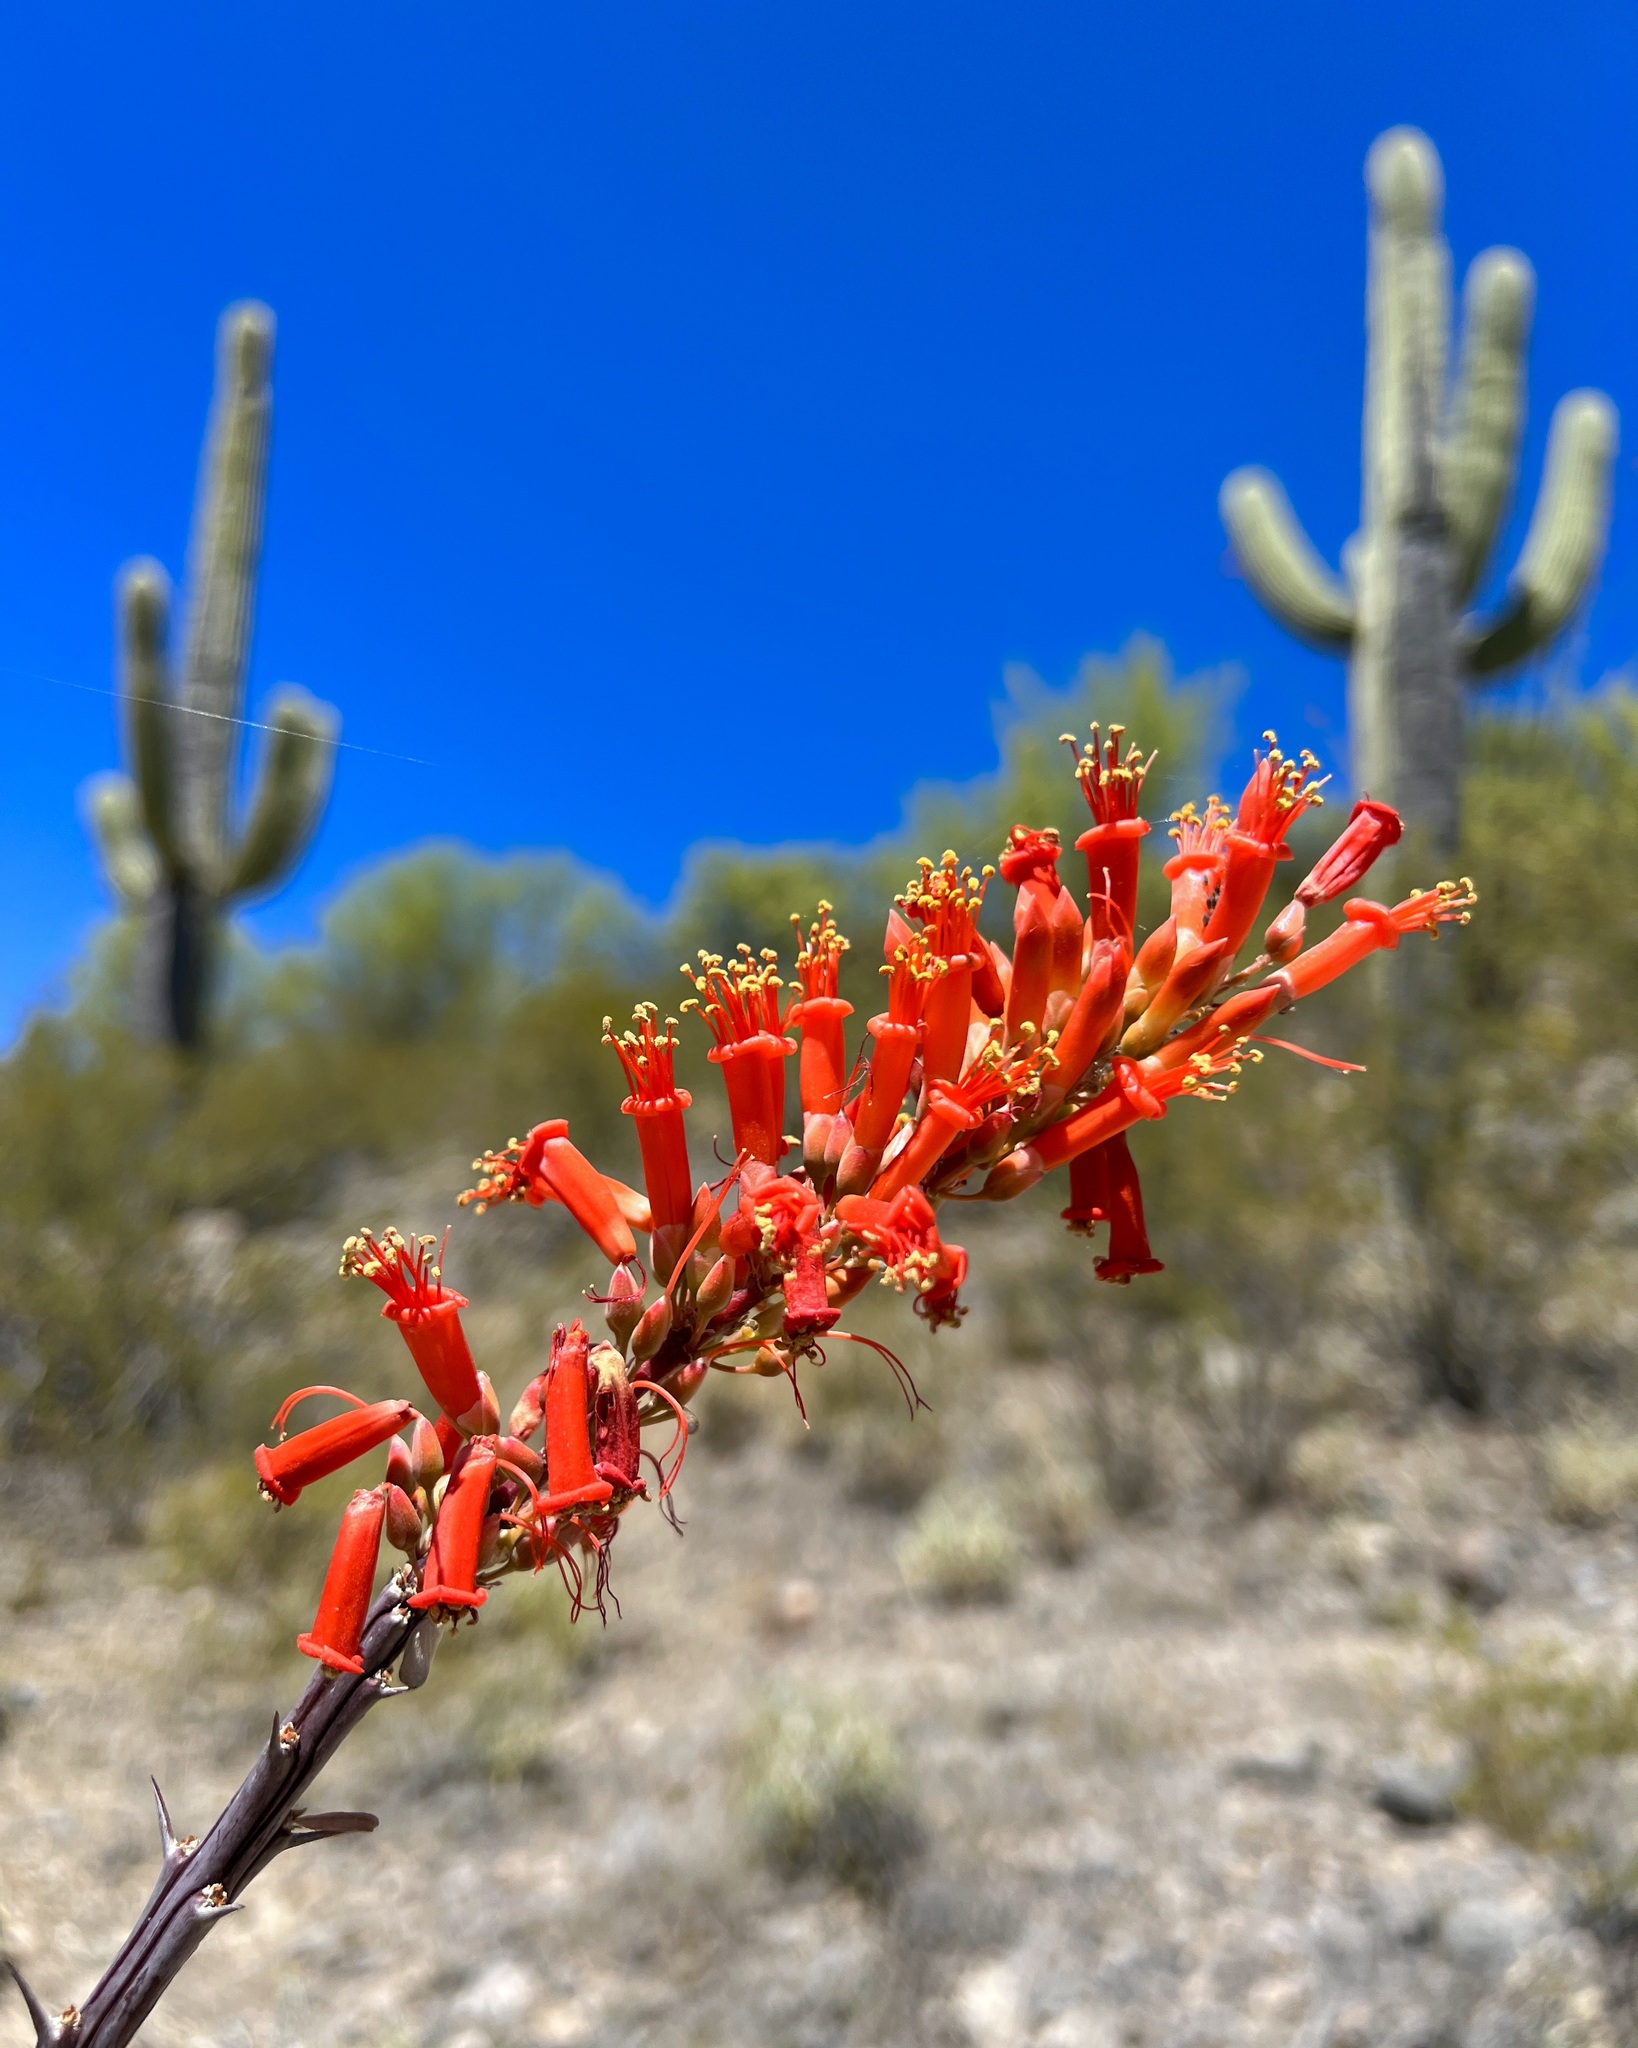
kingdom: Plantae
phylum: Tracheophyta
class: Magnoliopsida
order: Ericales
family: Fouquieriaceae
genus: Fouquieria
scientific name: Fouquieria splendens
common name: Vine-cactus
